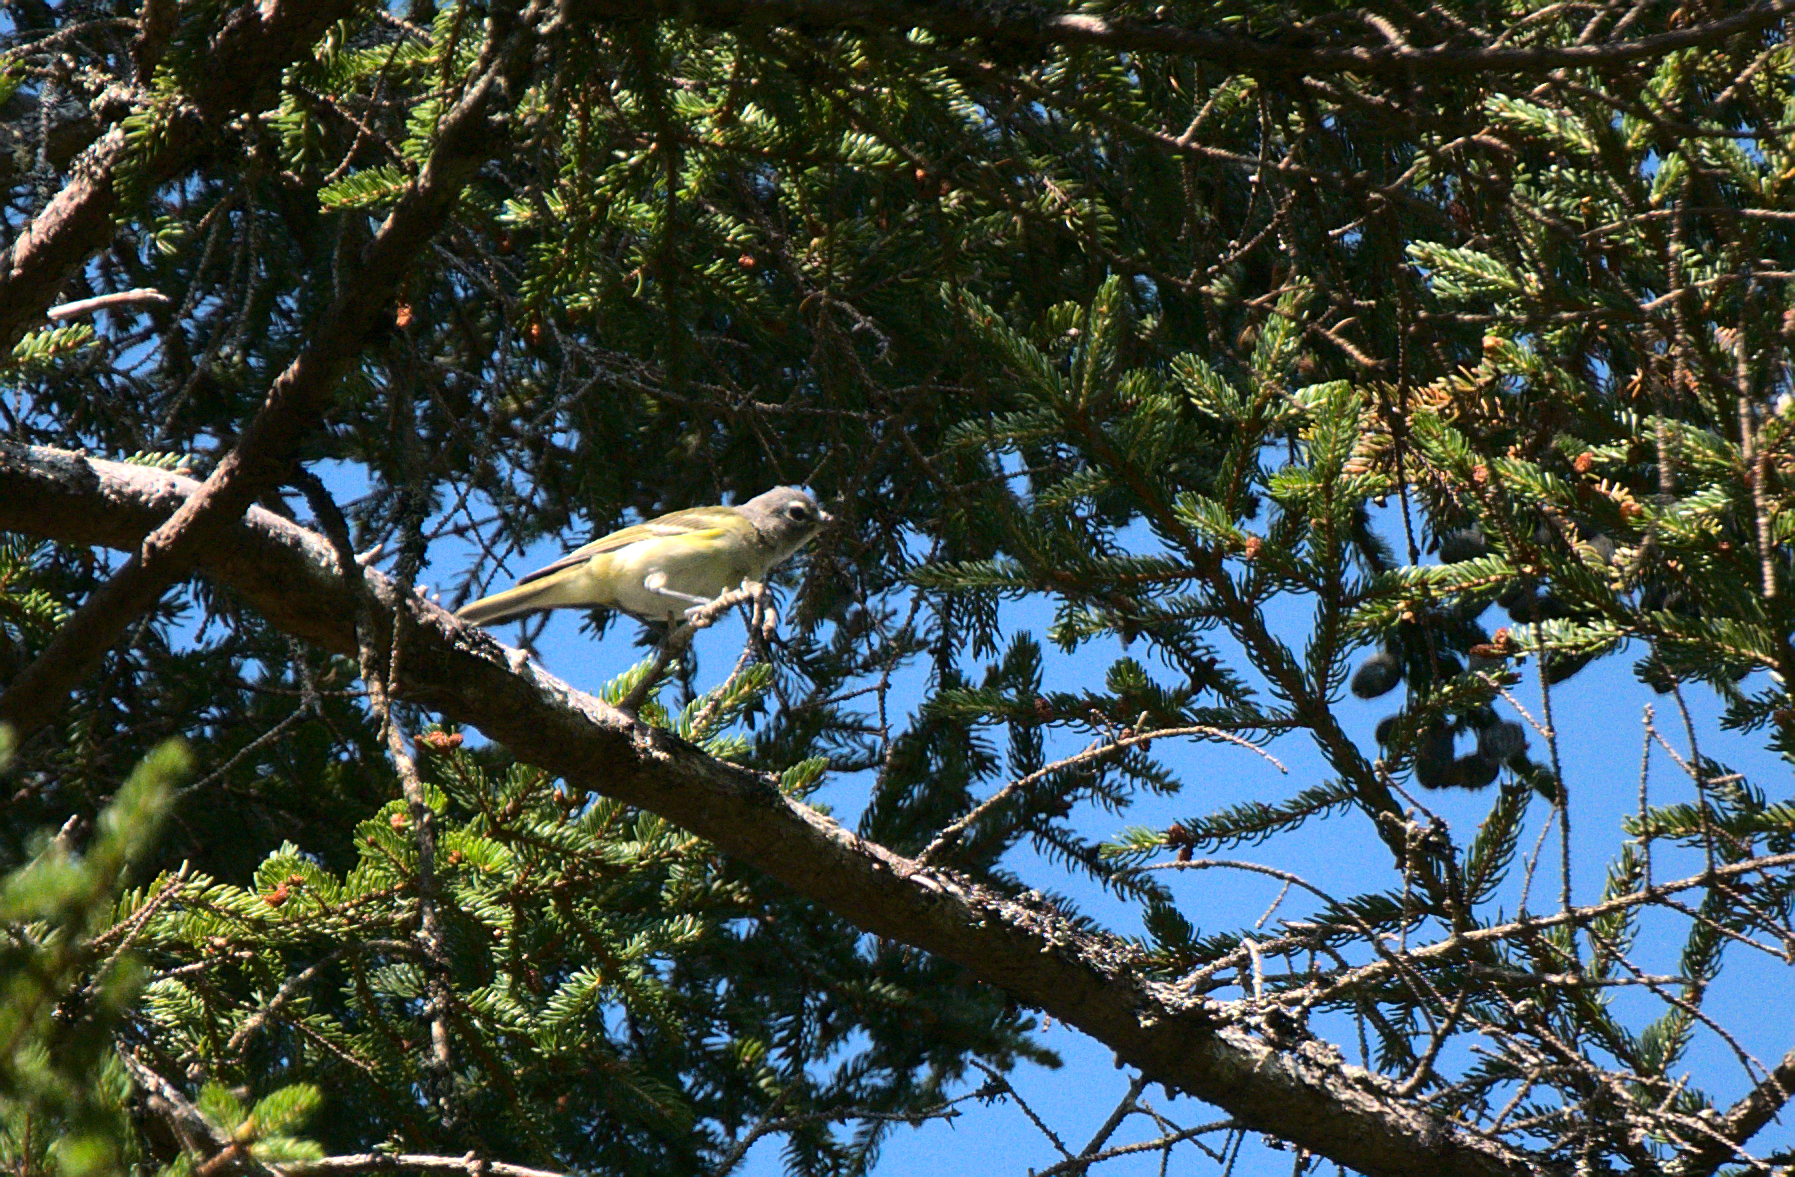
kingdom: Animalia
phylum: Chordata
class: Aves
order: Passeriformes
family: Vireonidae
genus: Vireo
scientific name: Vireo solitarius
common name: Blue-headed vireo
